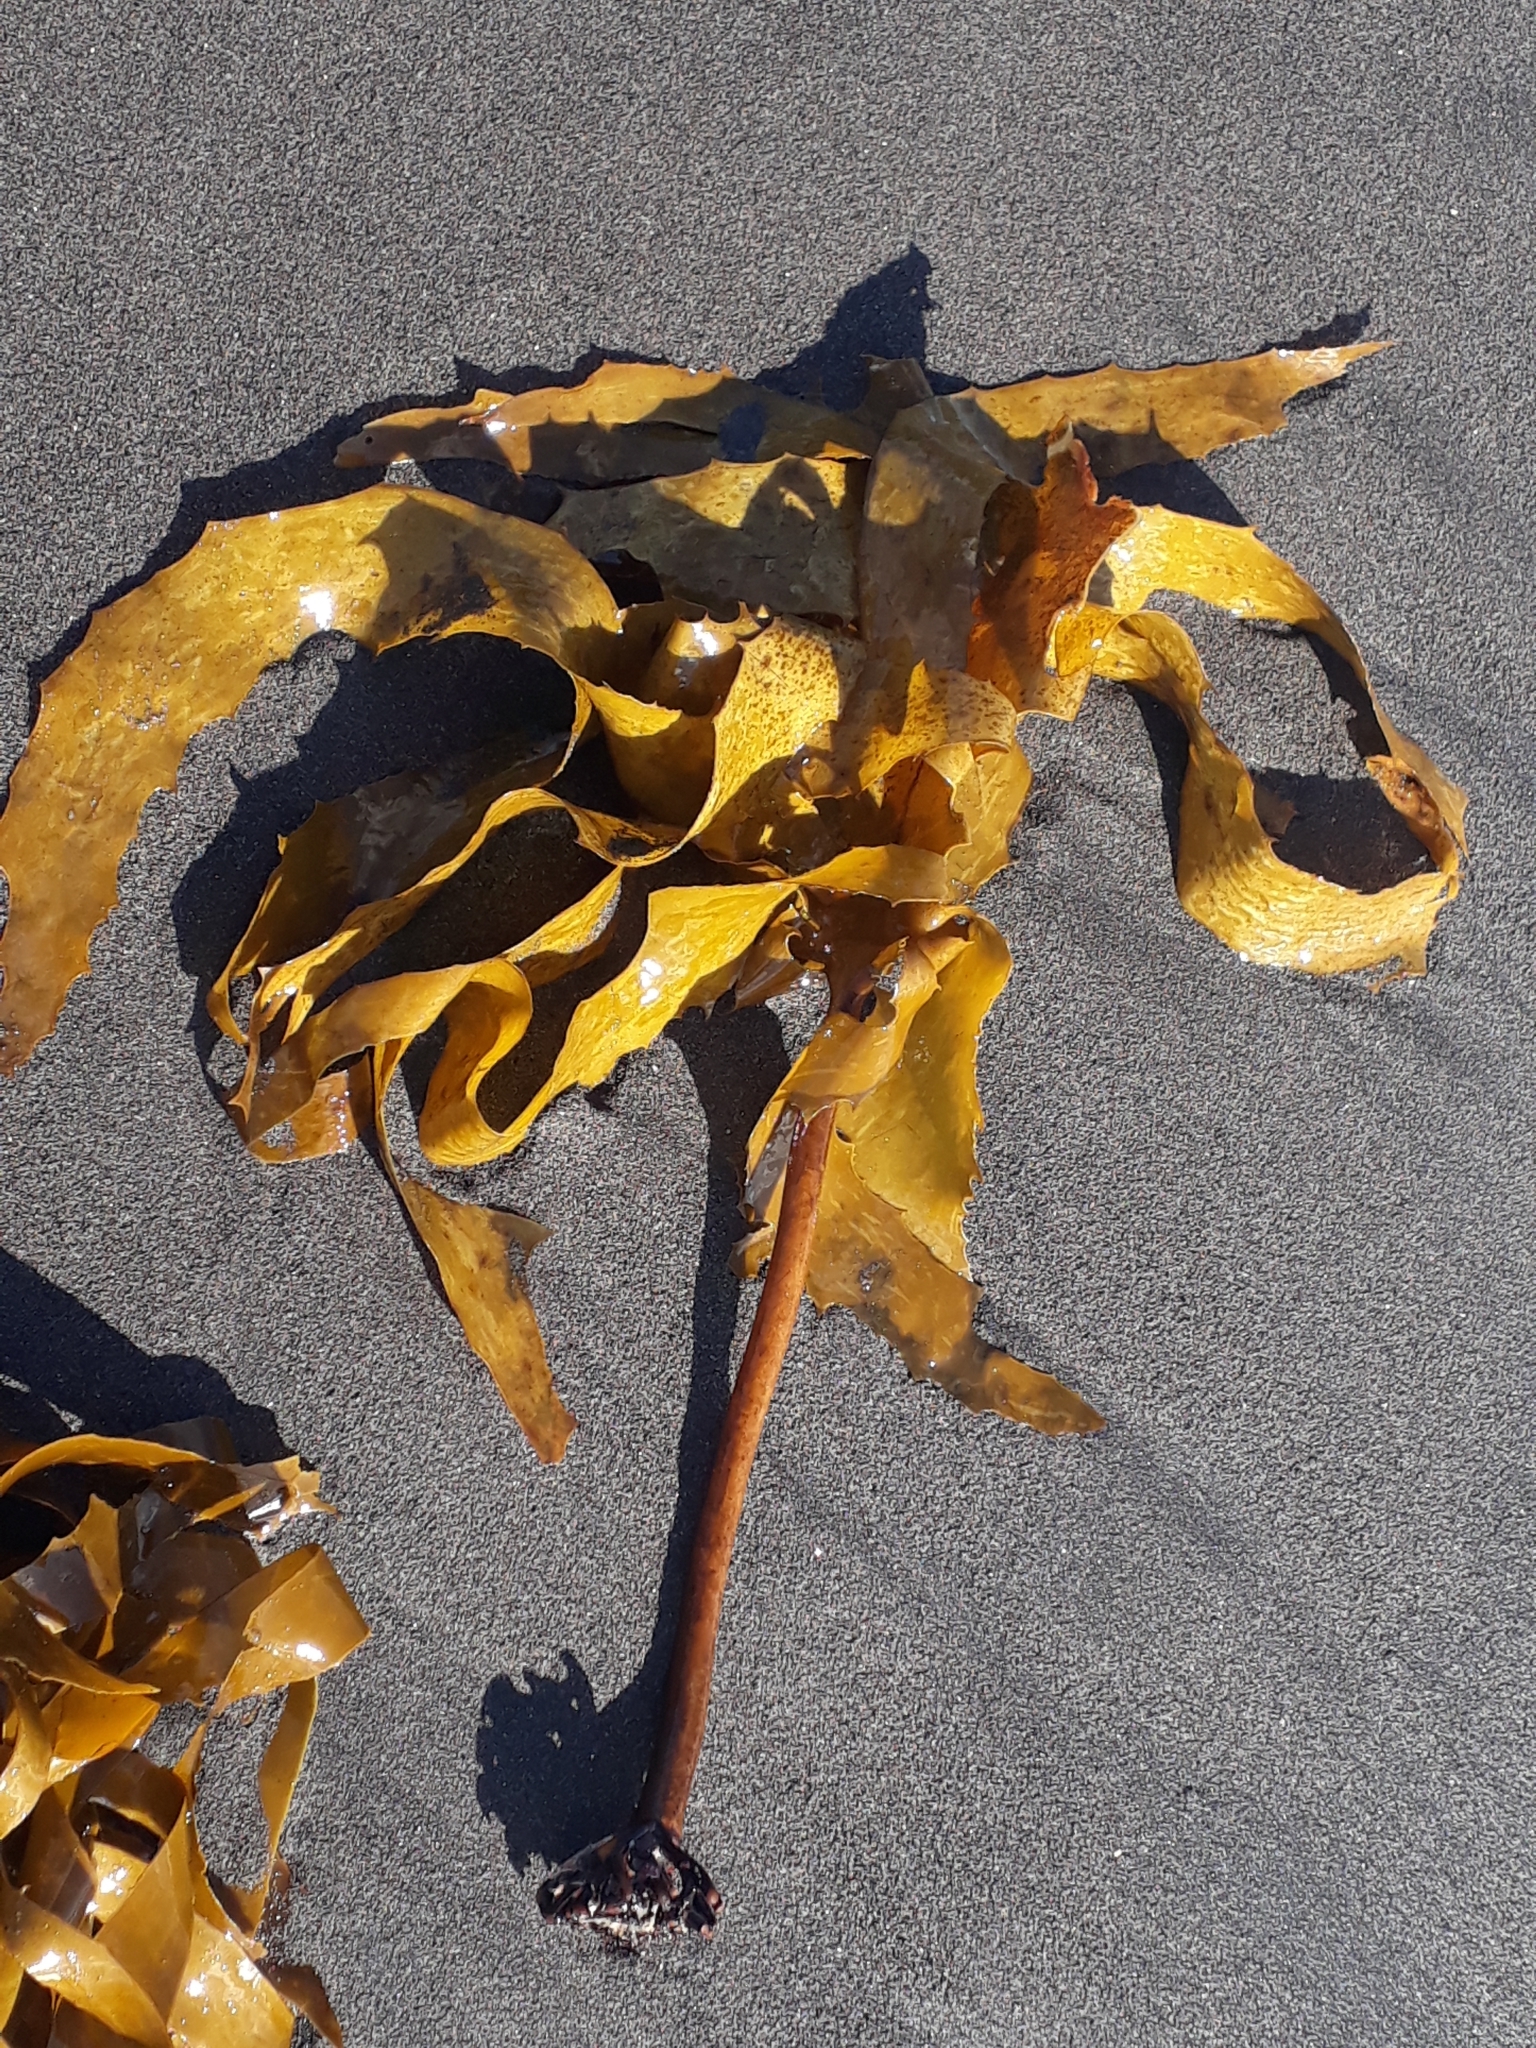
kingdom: Chromista
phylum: Ochrophyta
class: Phaeophyceae
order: Laminariales
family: Lessoniaceae
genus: Ecklonia
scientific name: Ecklonia radiata
